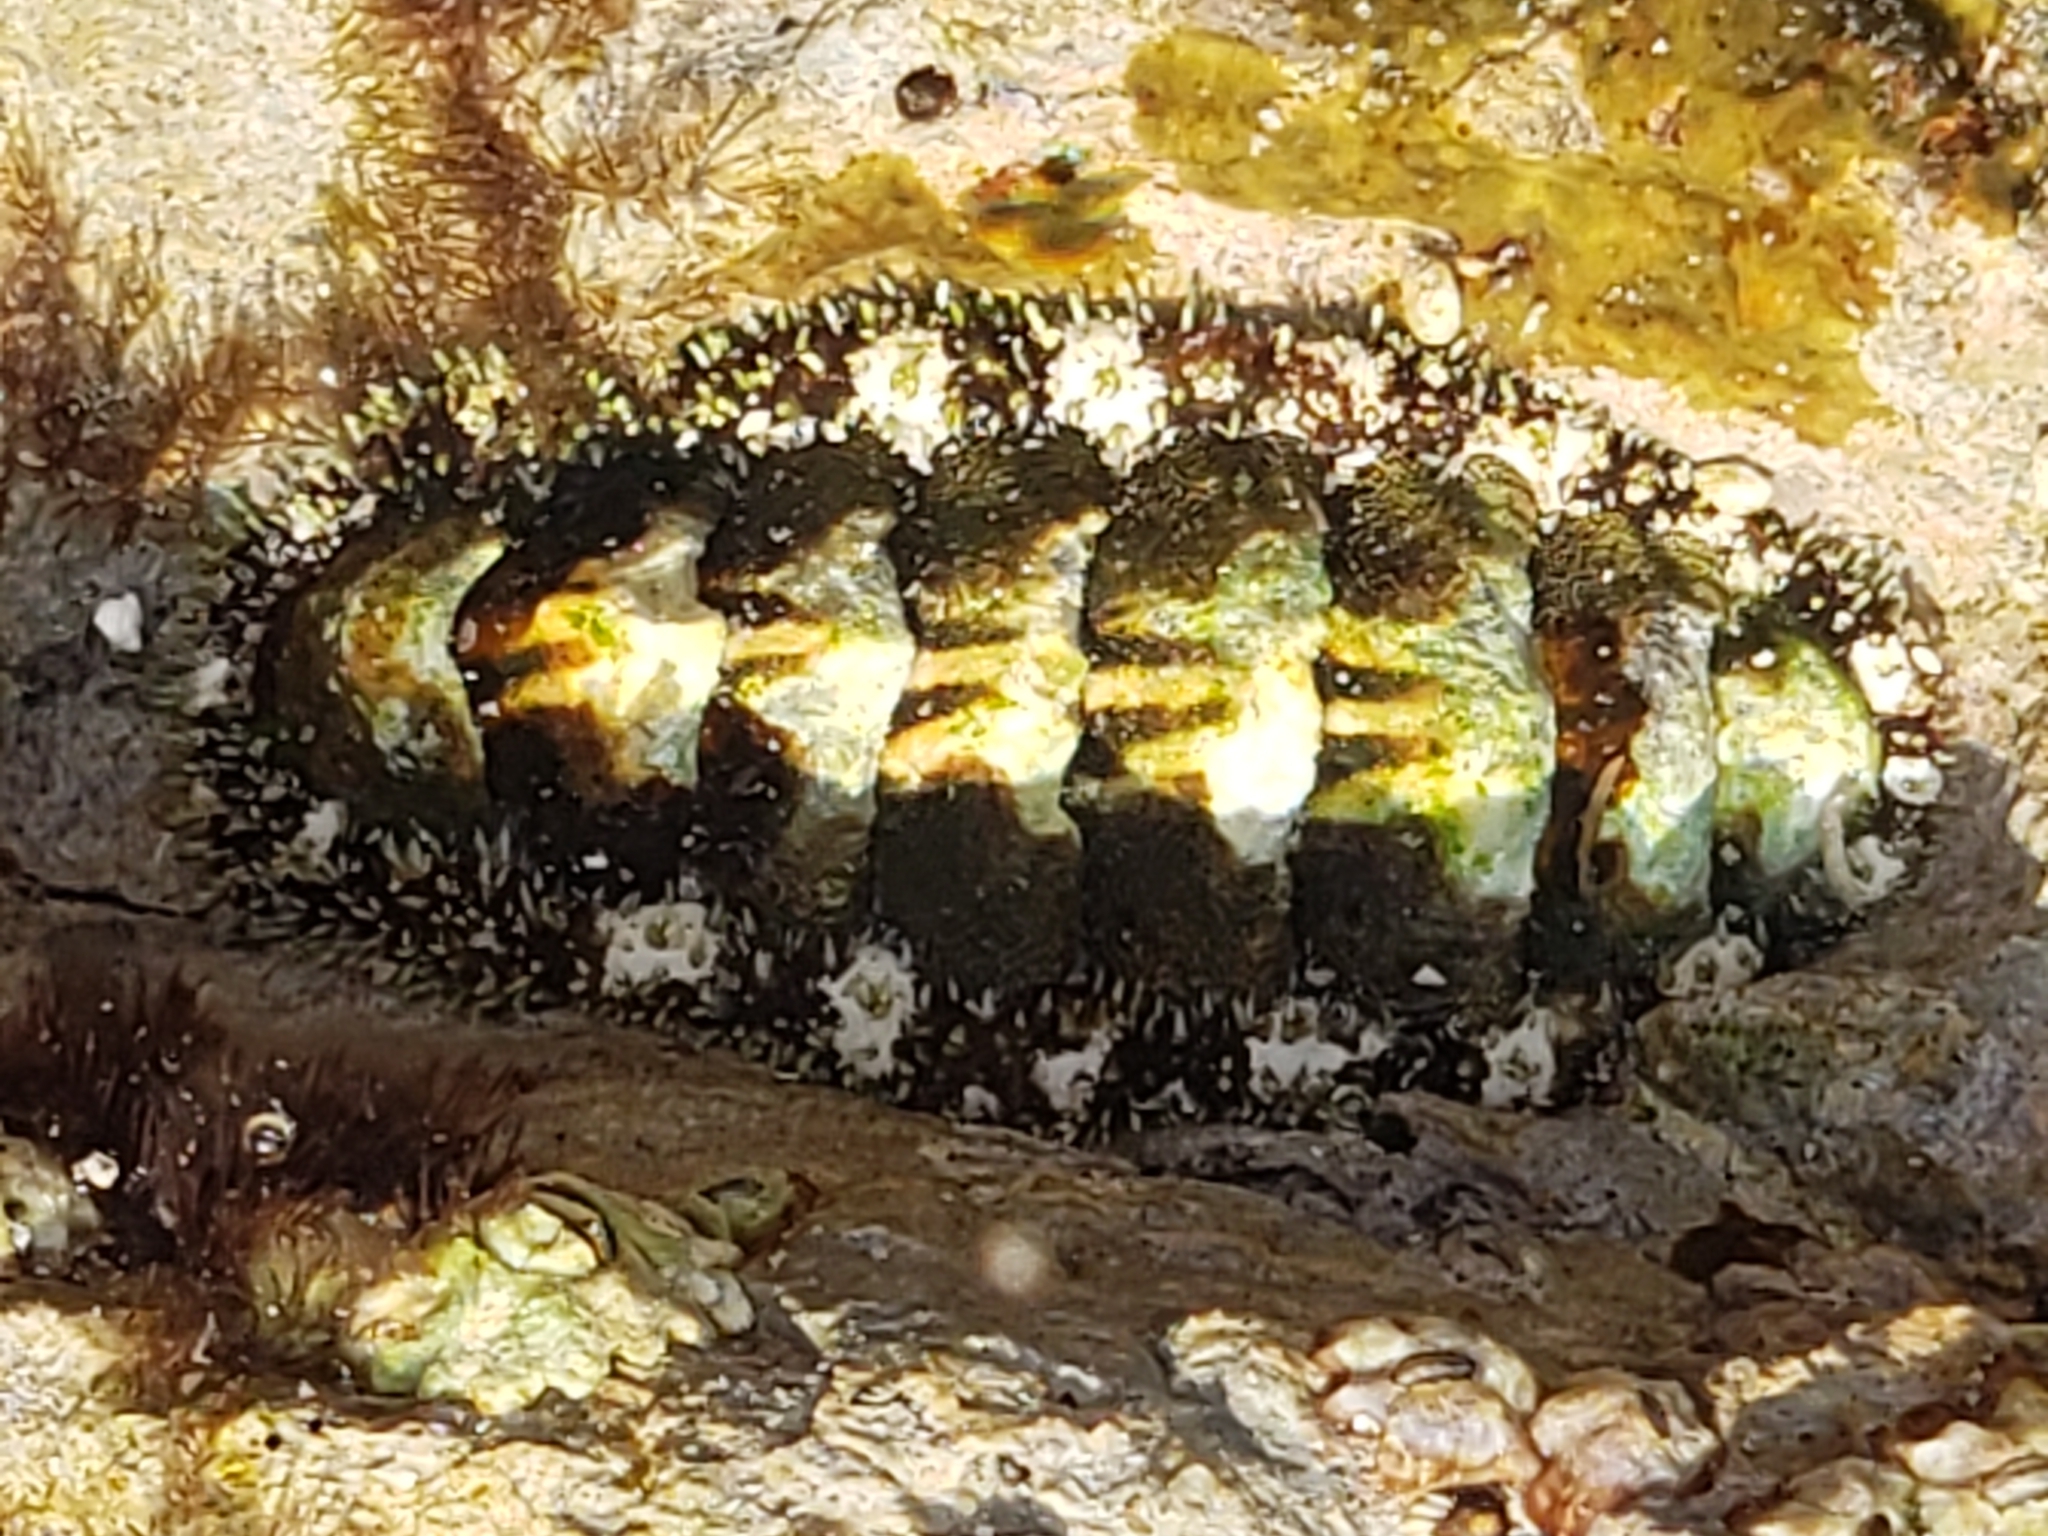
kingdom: Animalia
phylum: Mollusca
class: Polyplacophora
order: Chitonida
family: Tonicellidae
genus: Nuttallina
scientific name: Nuttallina californica
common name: California nuttall chiton
